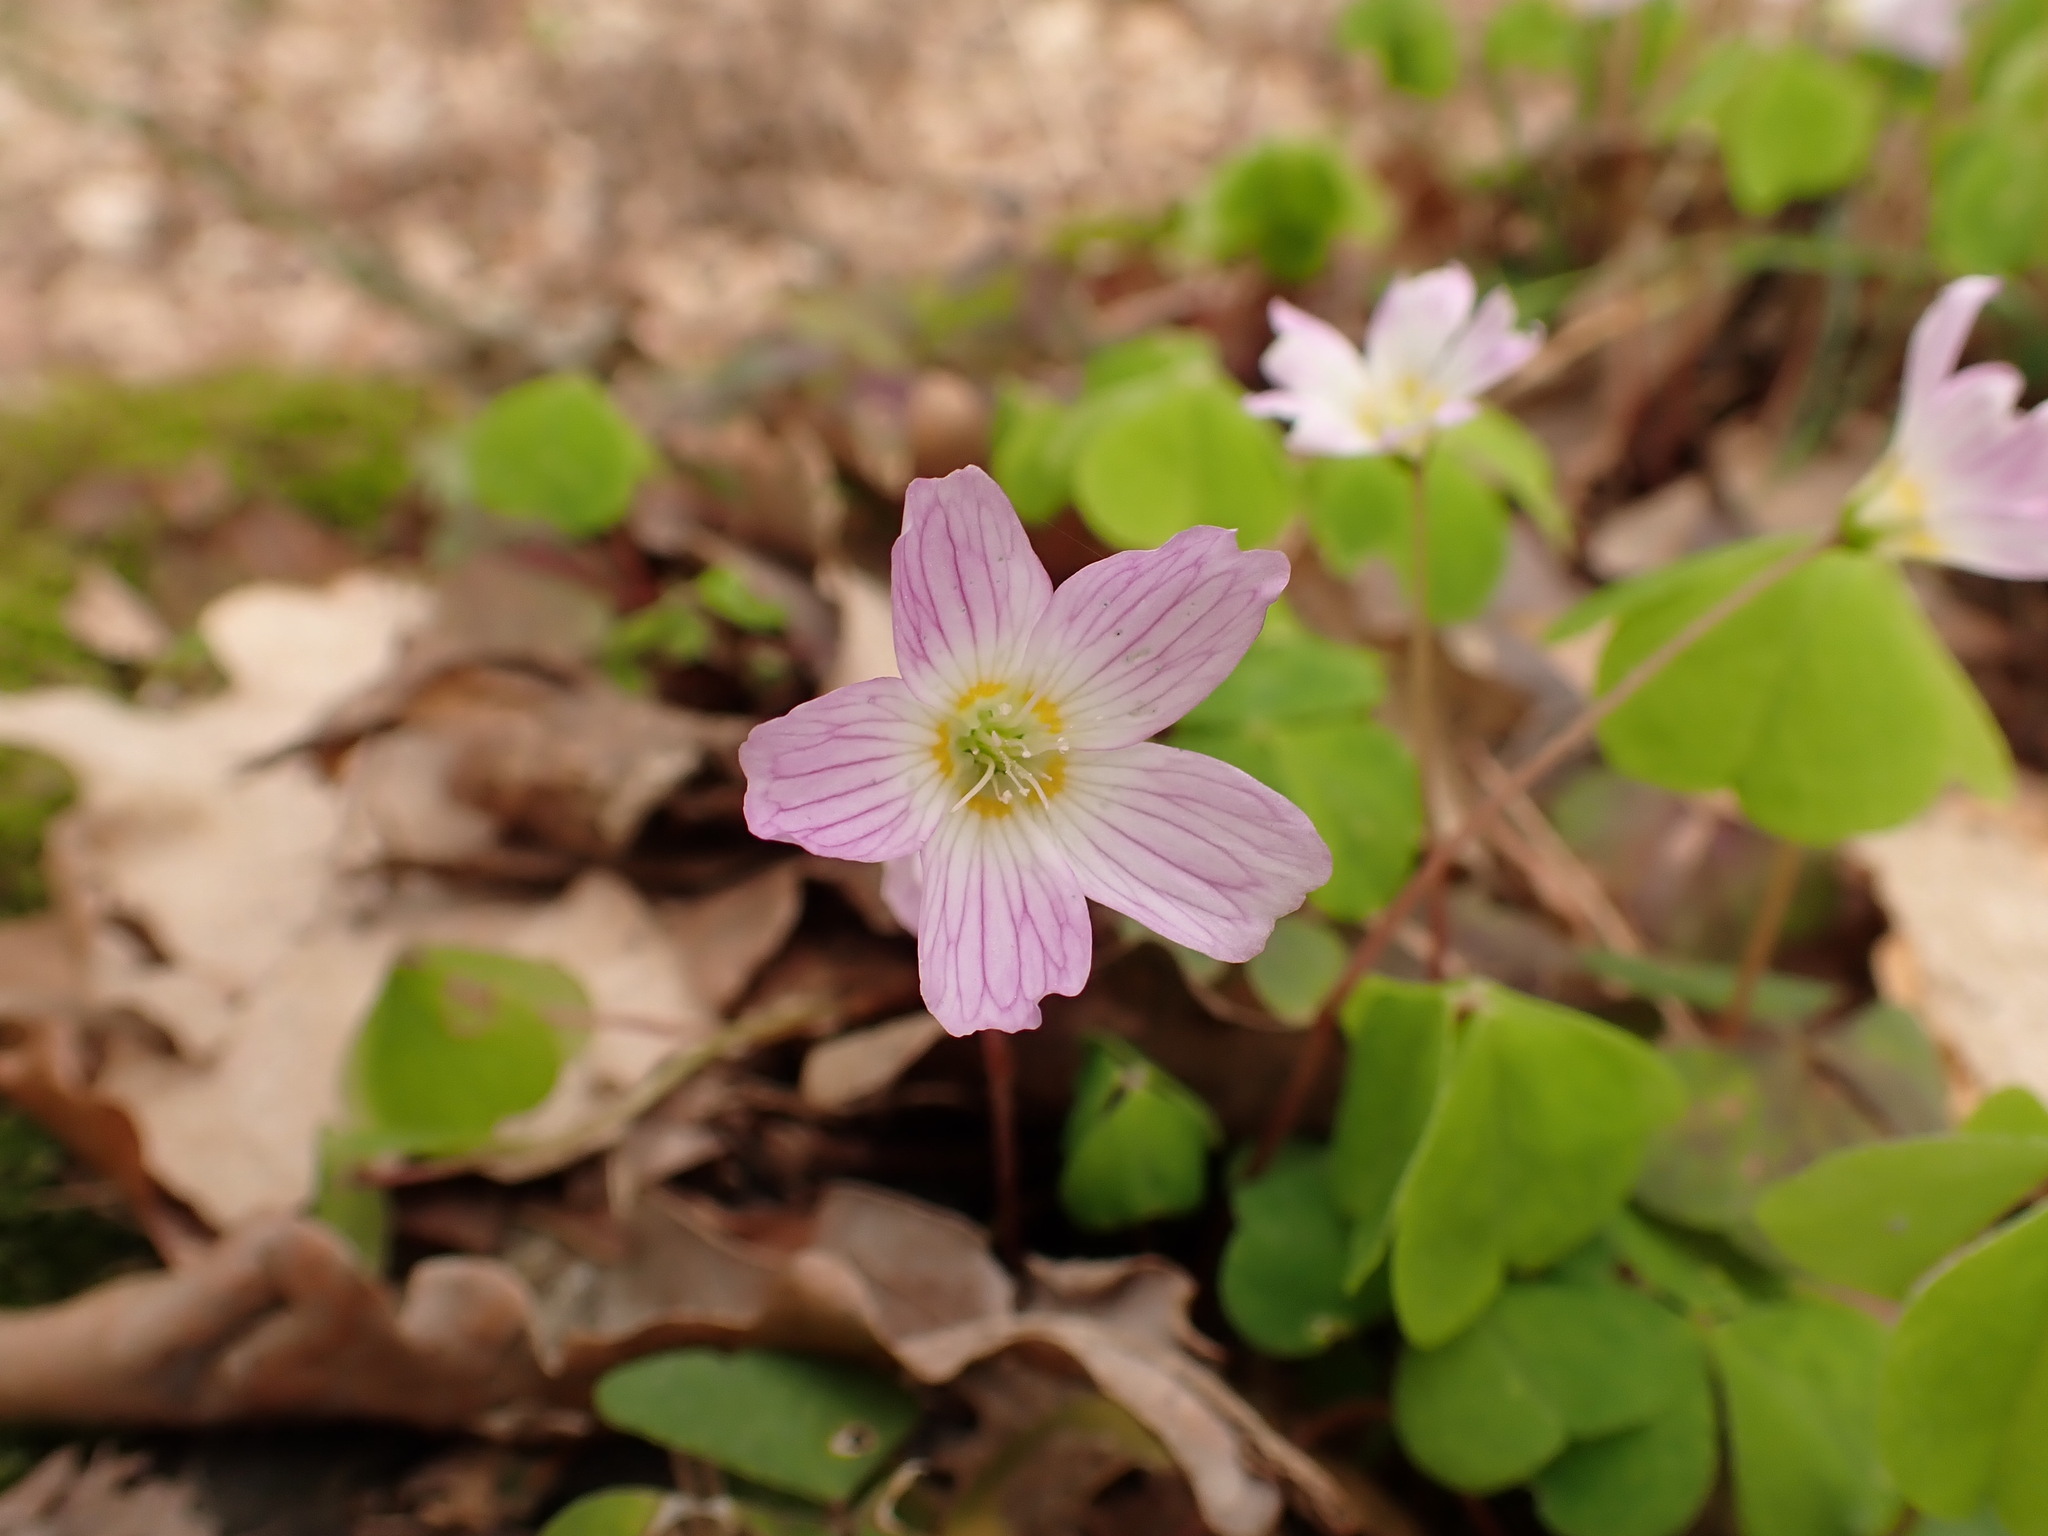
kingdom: Plantae
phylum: Tracheophyta
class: Magnoliopsida
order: Oxalidales
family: Oxalidaceae
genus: Oxalis
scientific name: Oxalis acetosella
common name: Wood-sorrel
